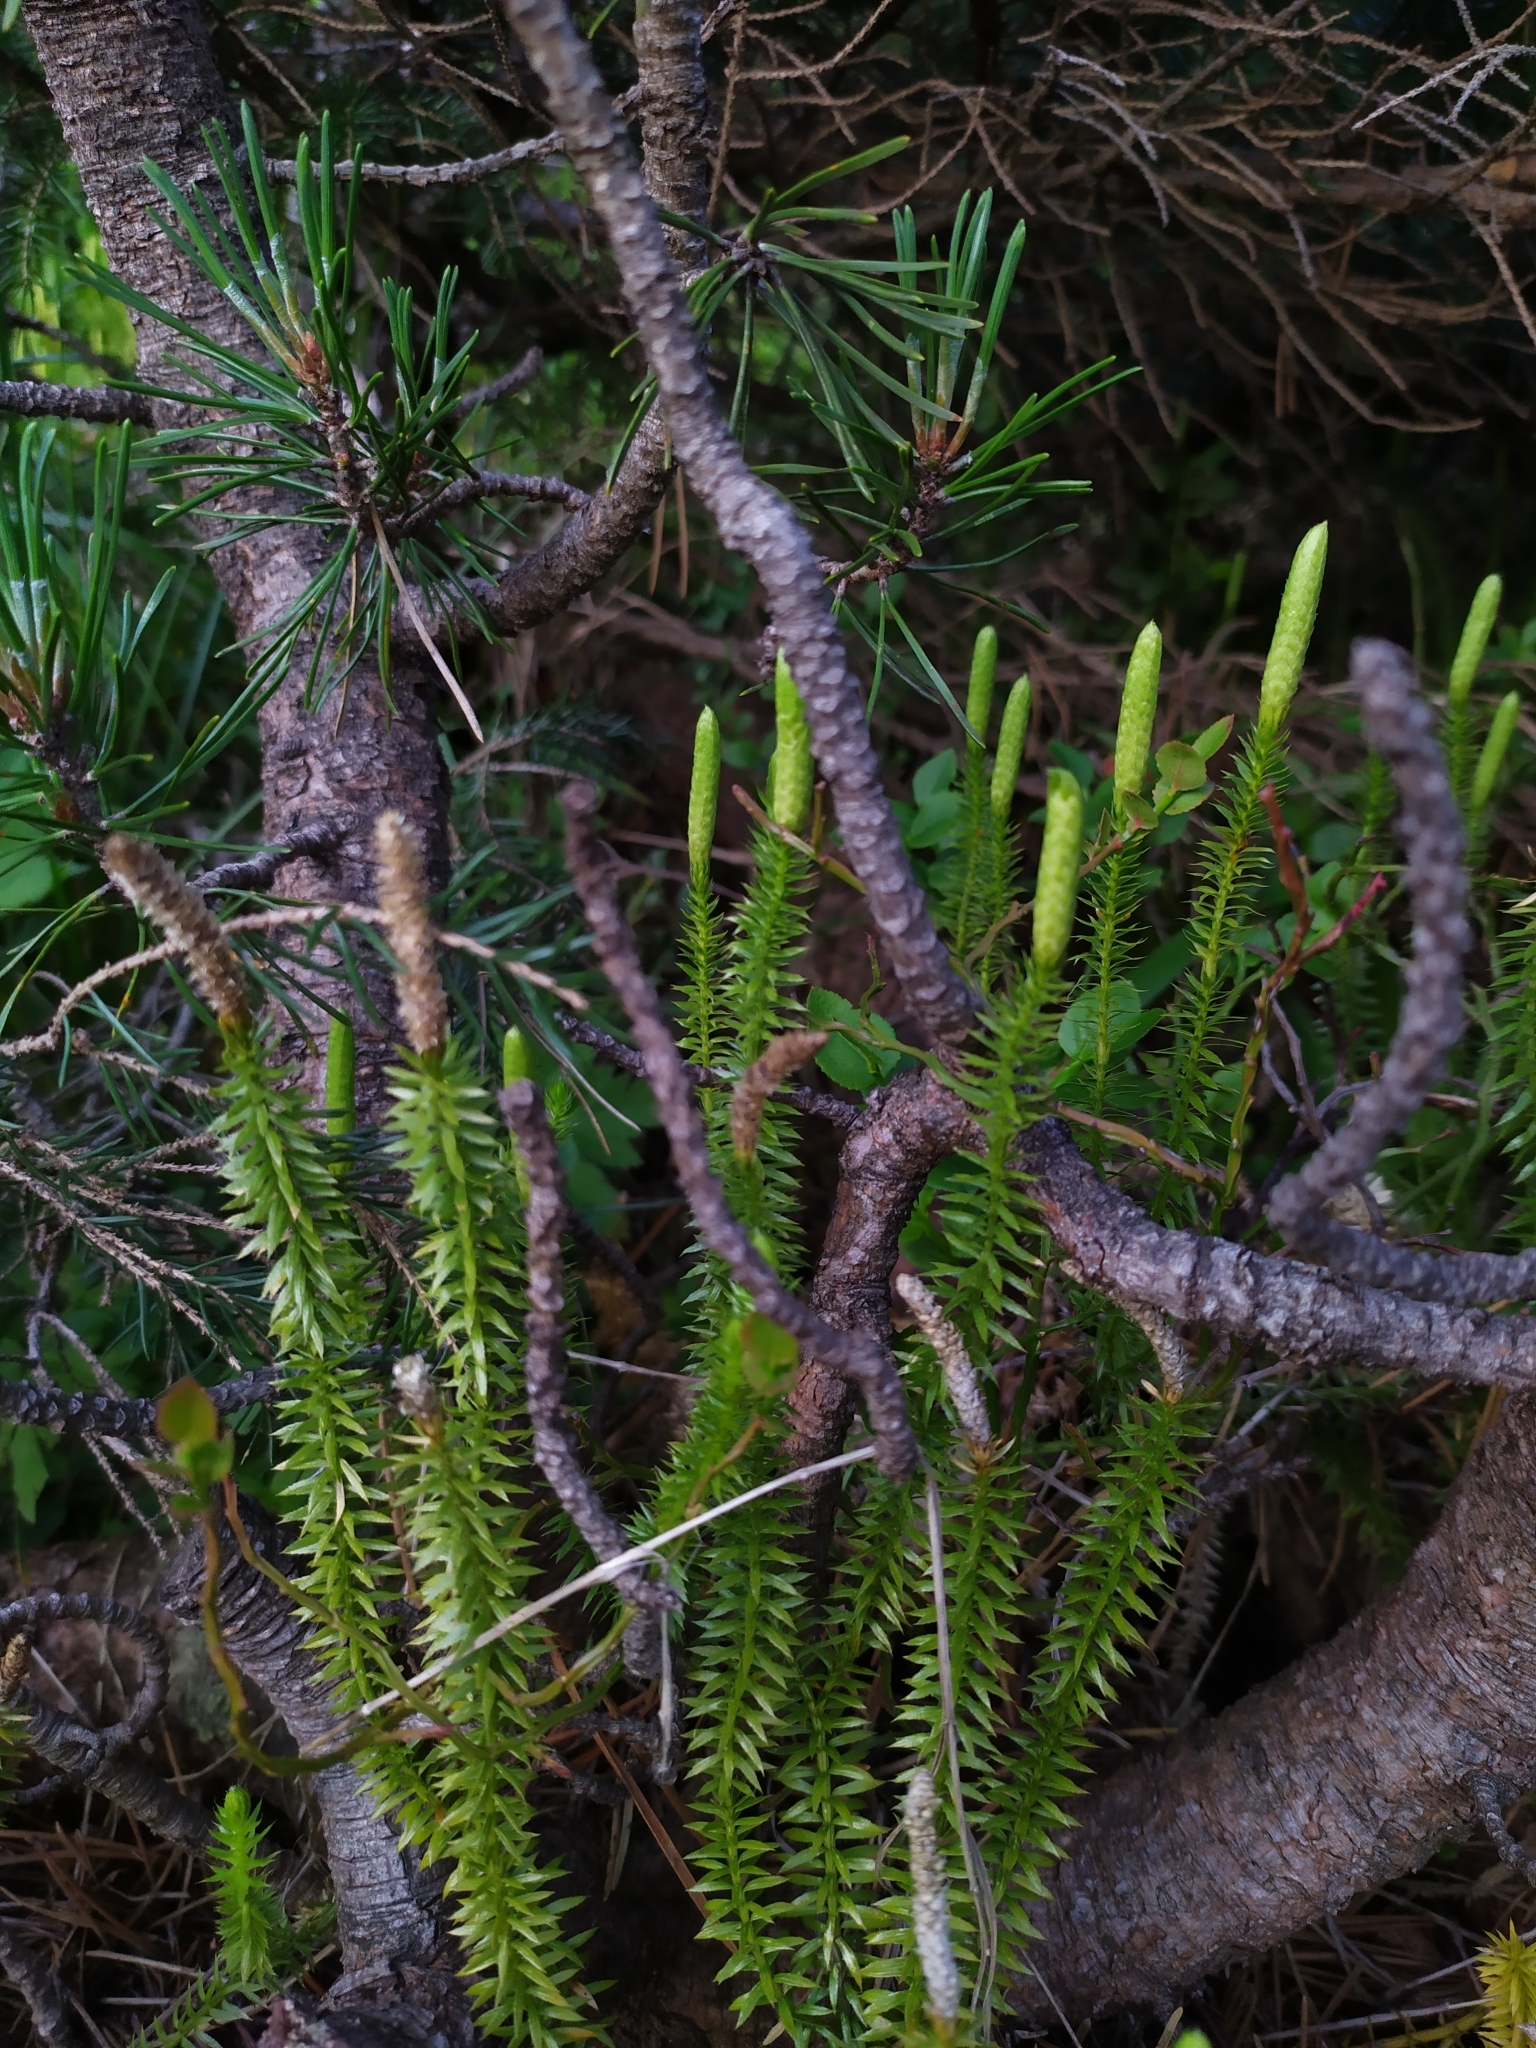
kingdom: Plantae
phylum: Tracheophyta
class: Lycopodiopsida
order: Lycopodiales
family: Lycopodiaceae
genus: Spinulum
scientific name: Spinulum annotinum
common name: Interrupted club-moss
